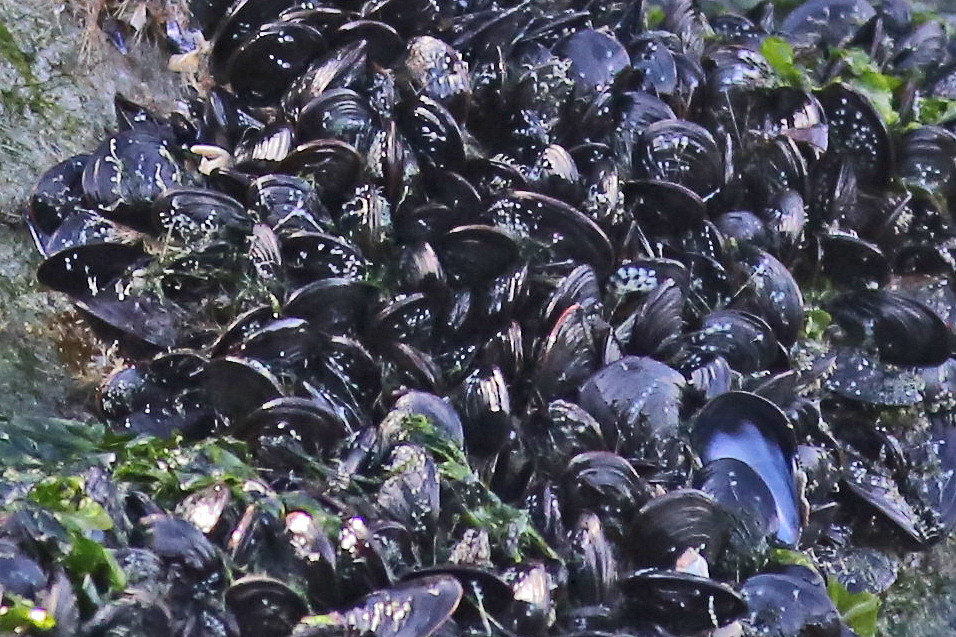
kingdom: Animalia
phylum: Mollusca
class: Bivalvia
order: Mytilida
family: Mytilidae
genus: Mytilus
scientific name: Mytilus edulis
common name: Blue mussel
